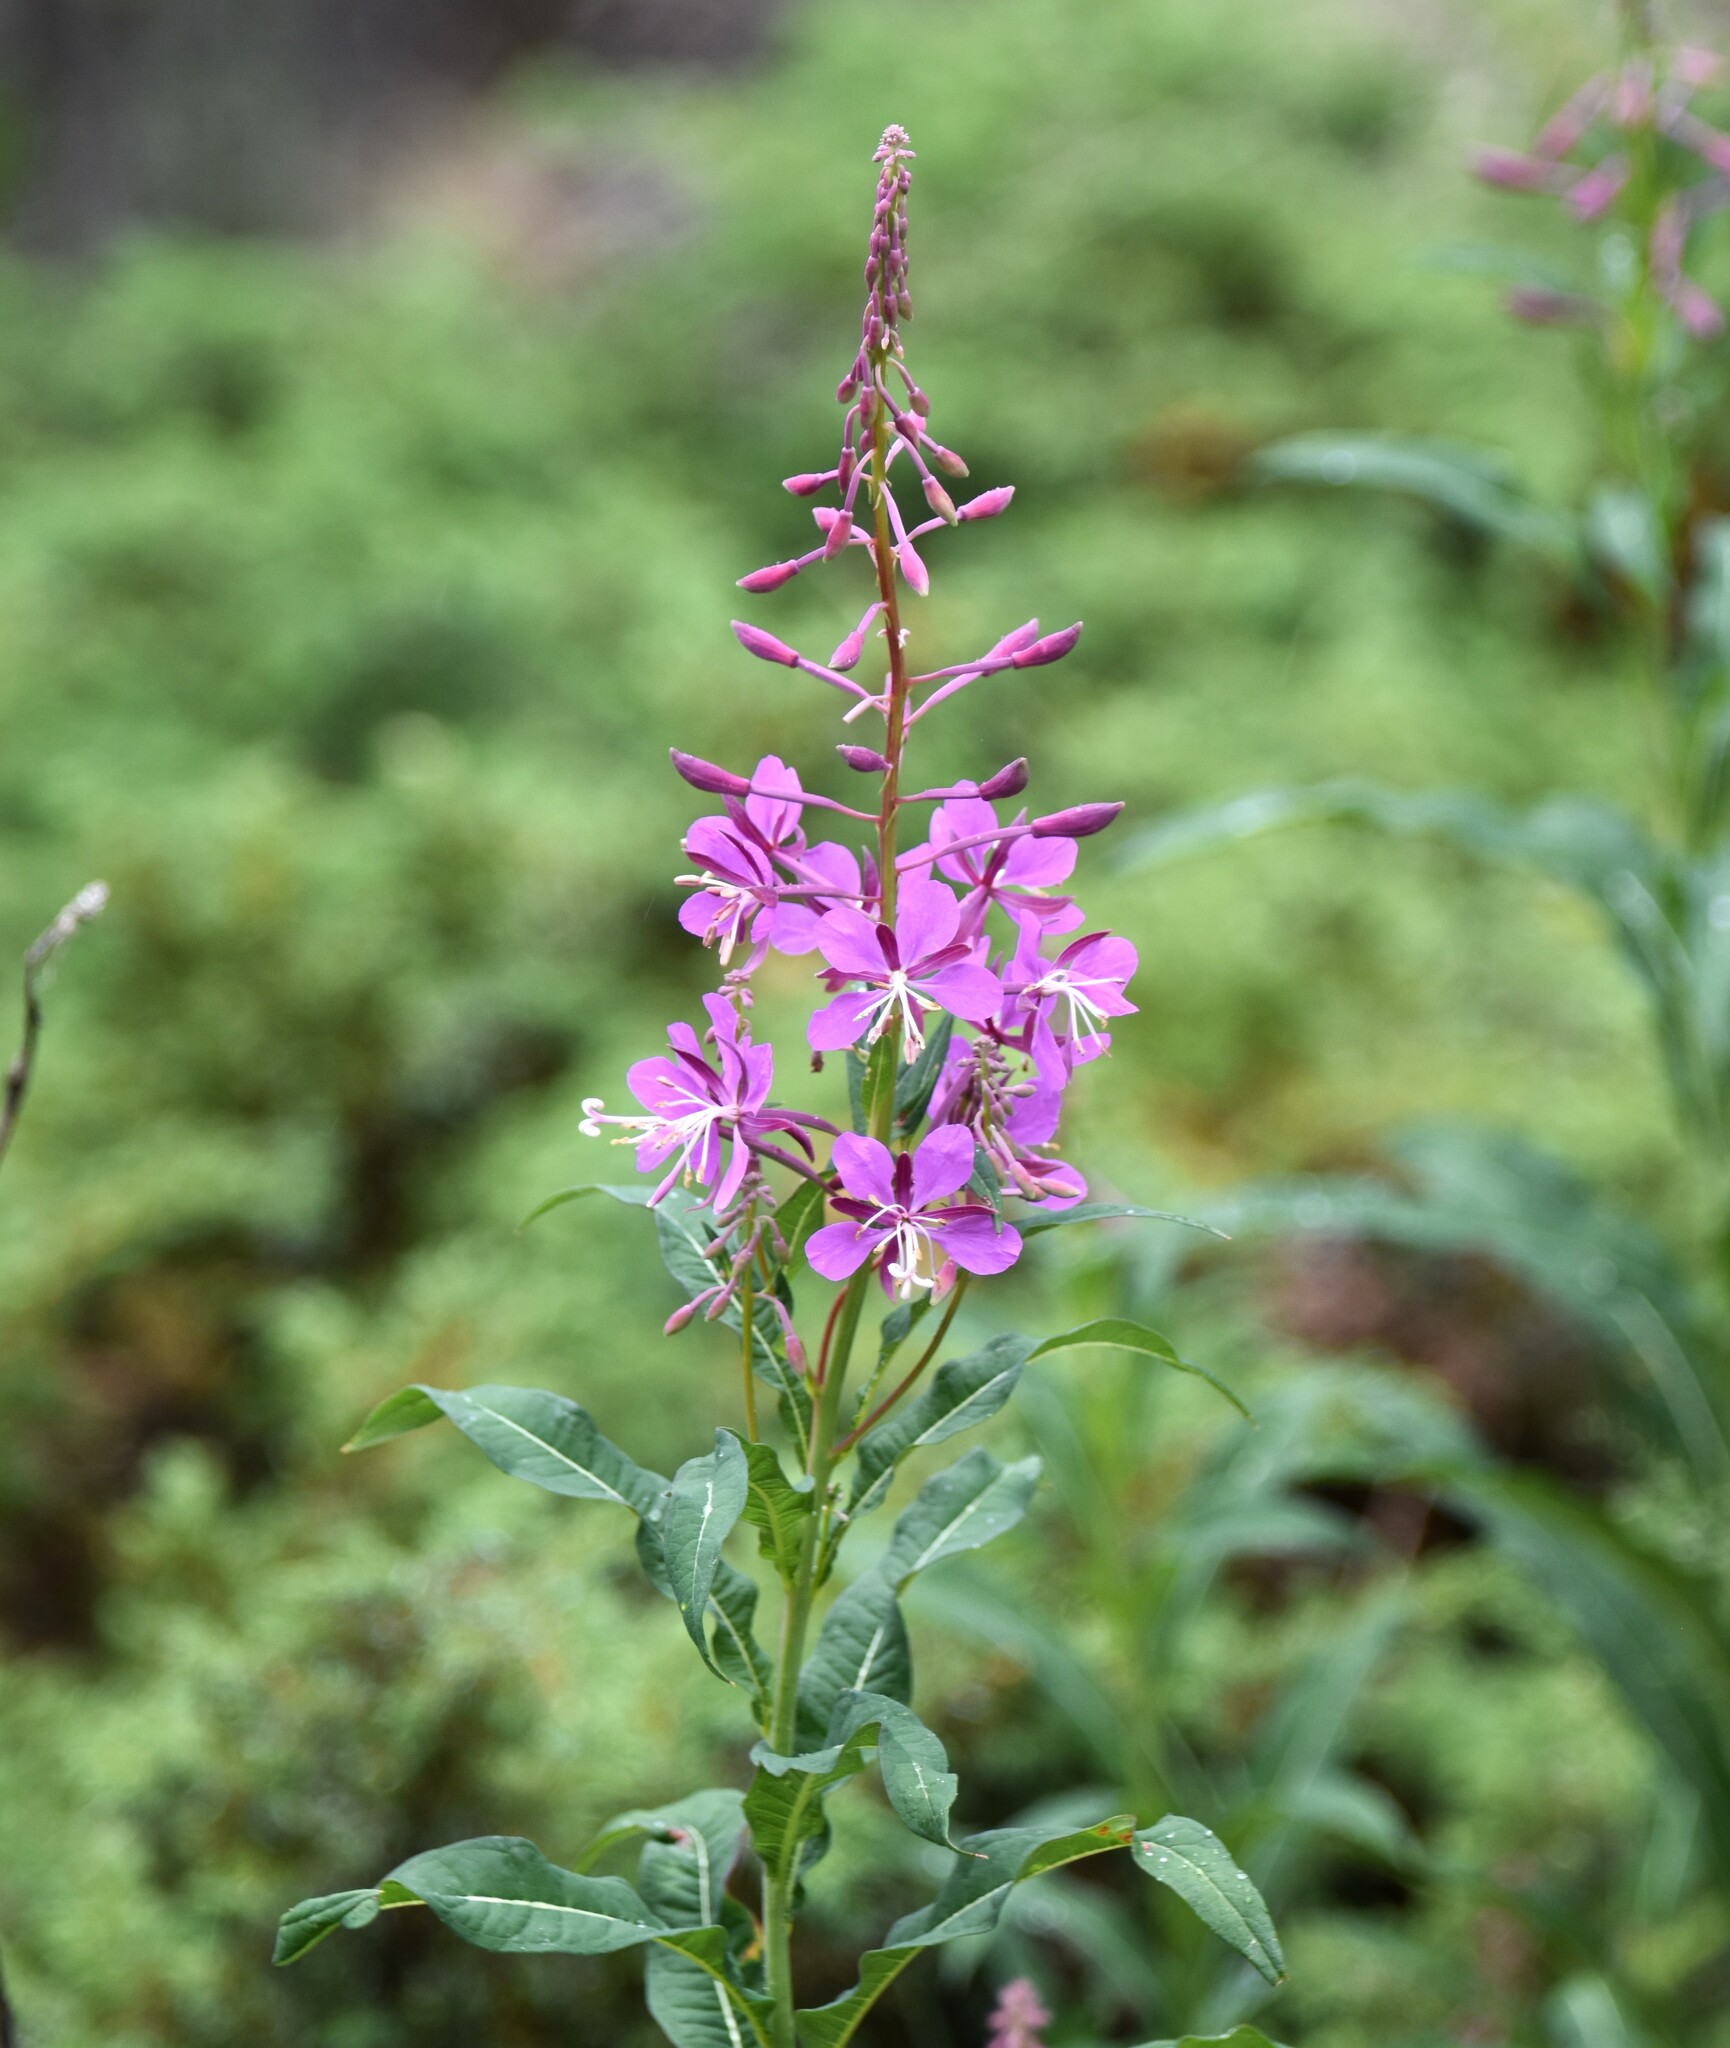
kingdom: Plantae
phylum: Tracheophyta
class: Magnoliopsida
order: Myrtales
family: Onagraceae
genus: Chamaenerion
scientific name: Chamaenerion angustifolium
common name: Fireweed
